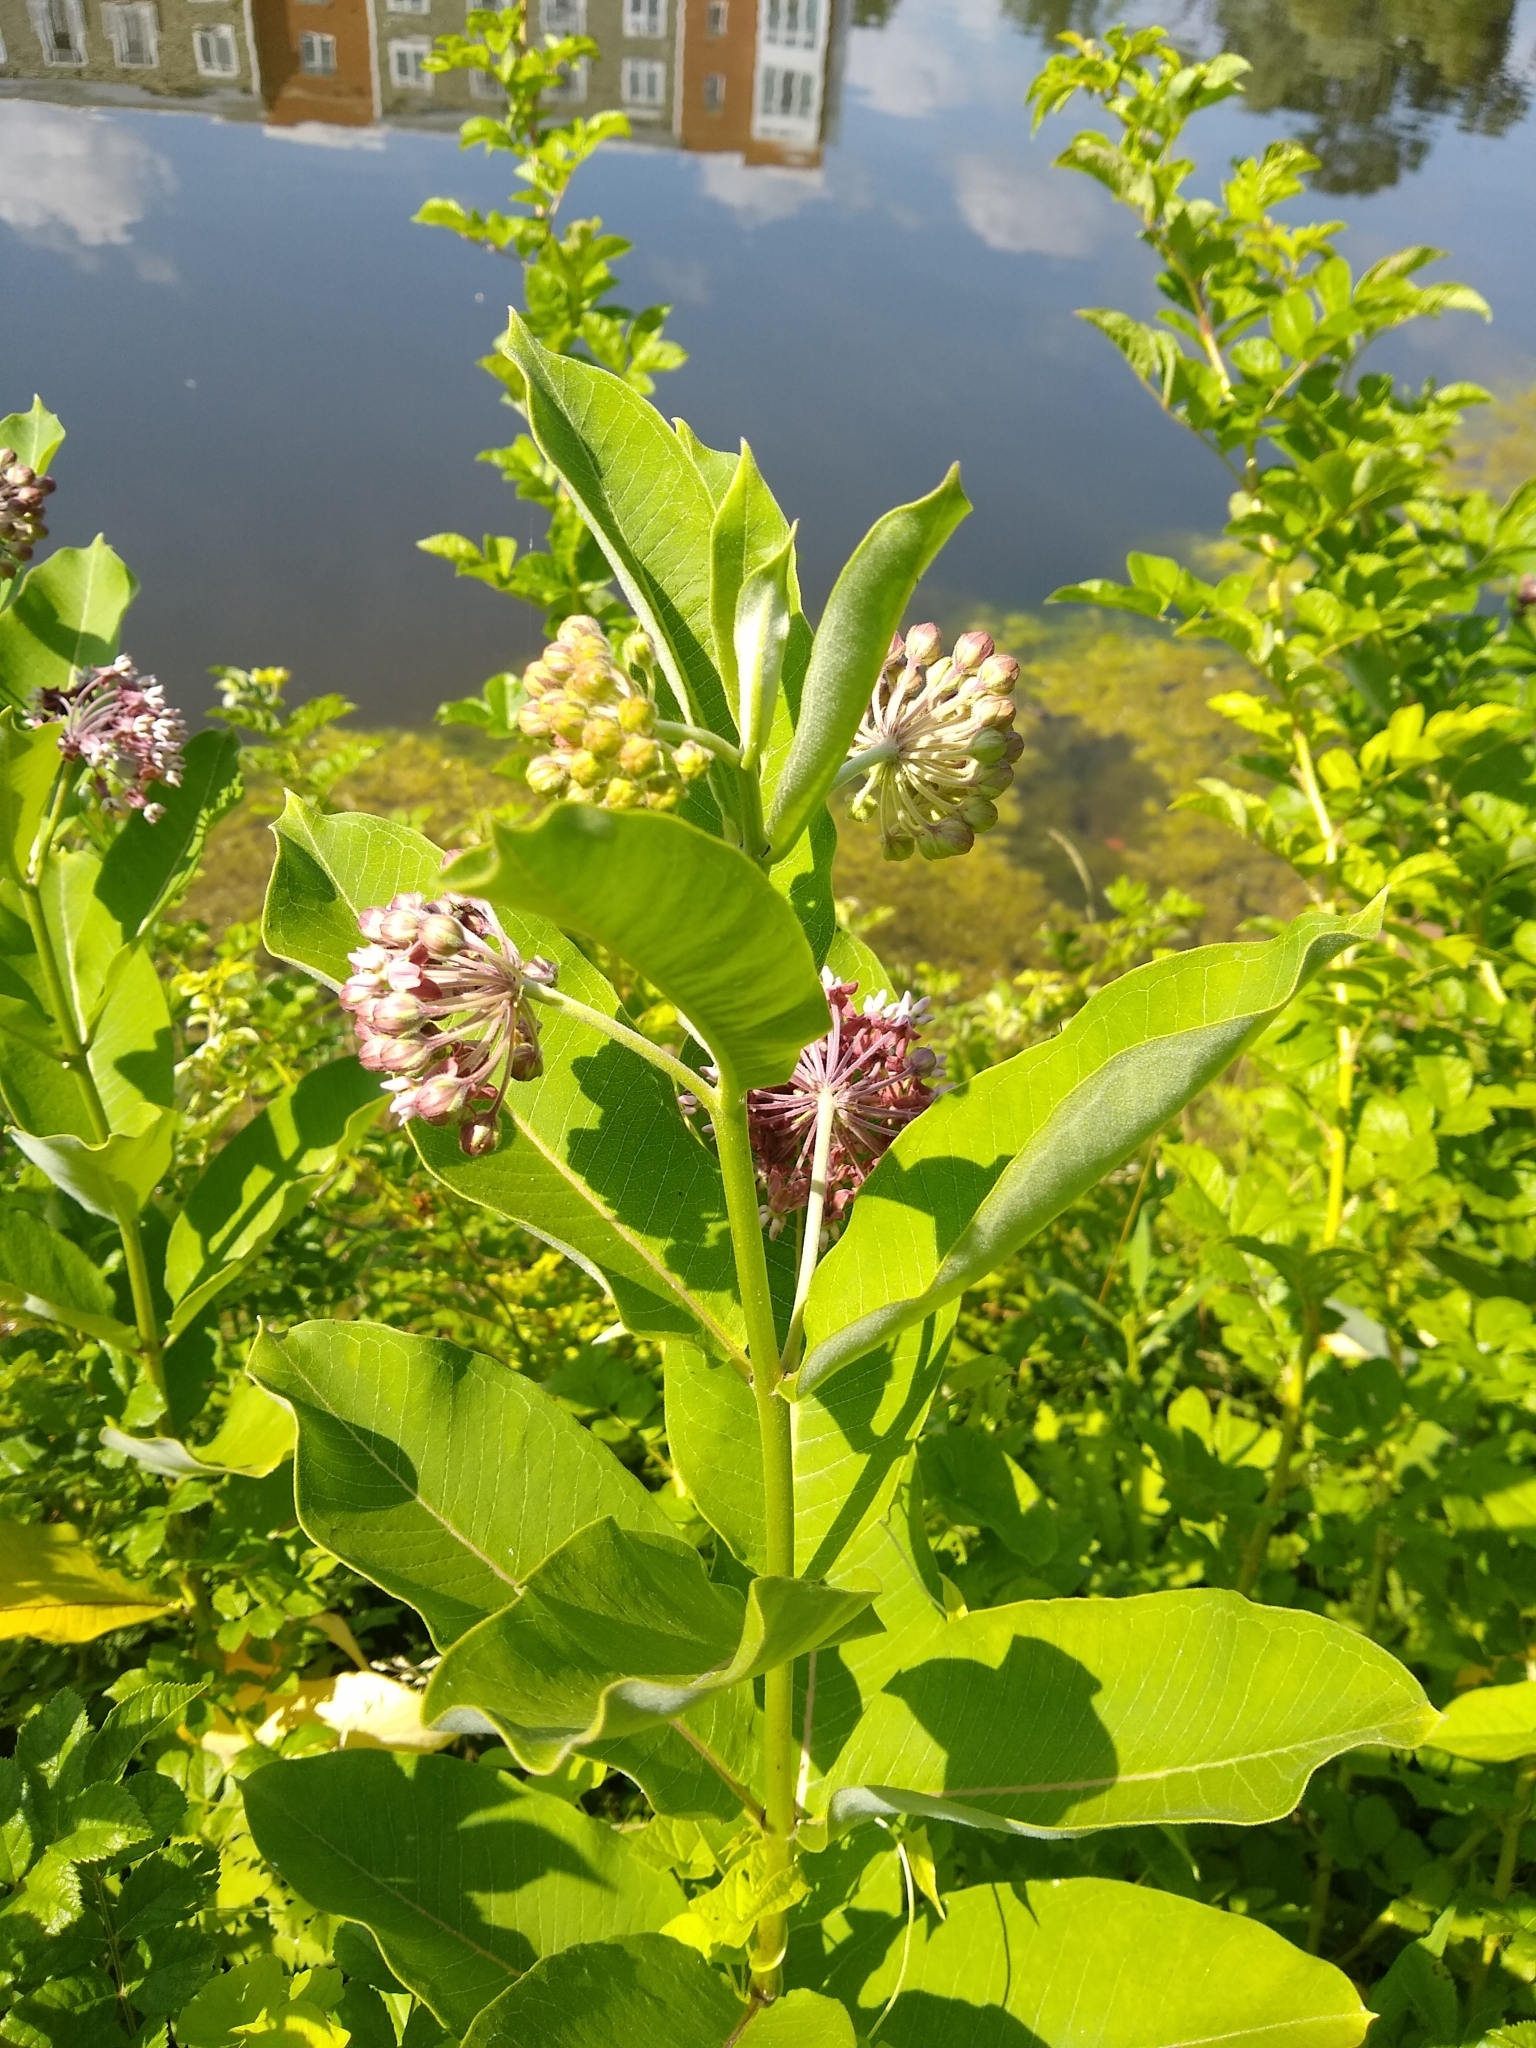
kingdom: Plantae
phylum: Tracheophyta
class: Magnoliopsida
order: Gentianales
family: Apocynaceae
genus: Asclepias
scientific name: Asclepias syriaca
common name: Common milkweed
